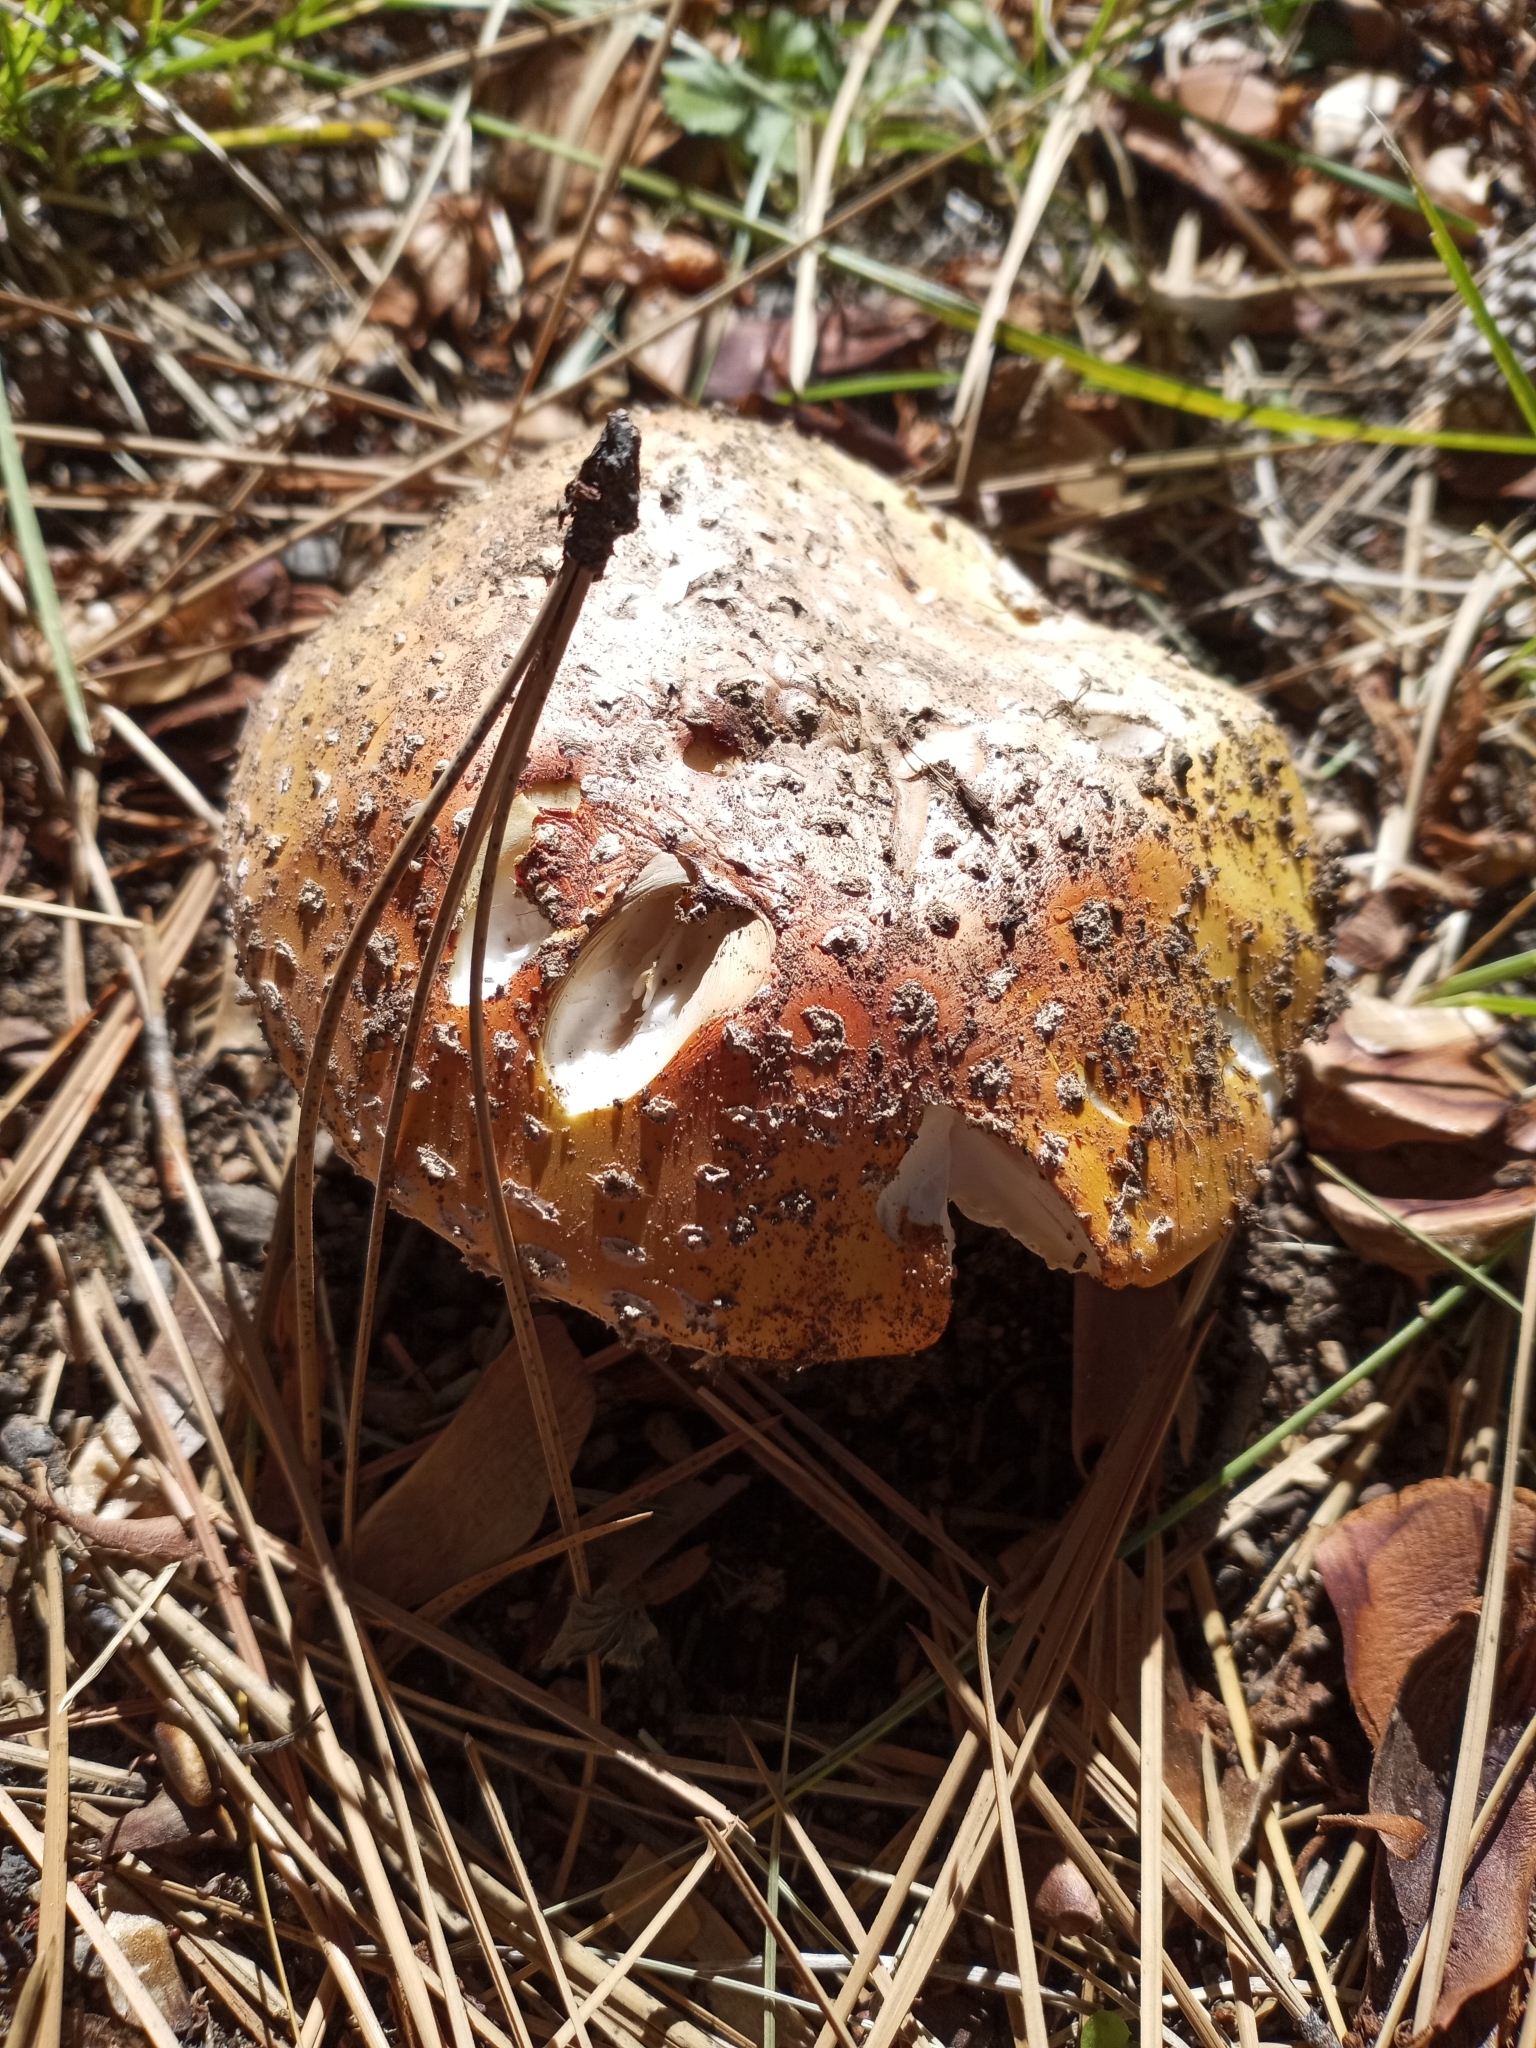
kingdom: Fungi
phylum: Basidiomycota
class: Agaricomycetes
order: Agaricales
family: Amanitaceae
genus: Amanita
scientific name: Amanita muscaria
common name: Fly agaric
